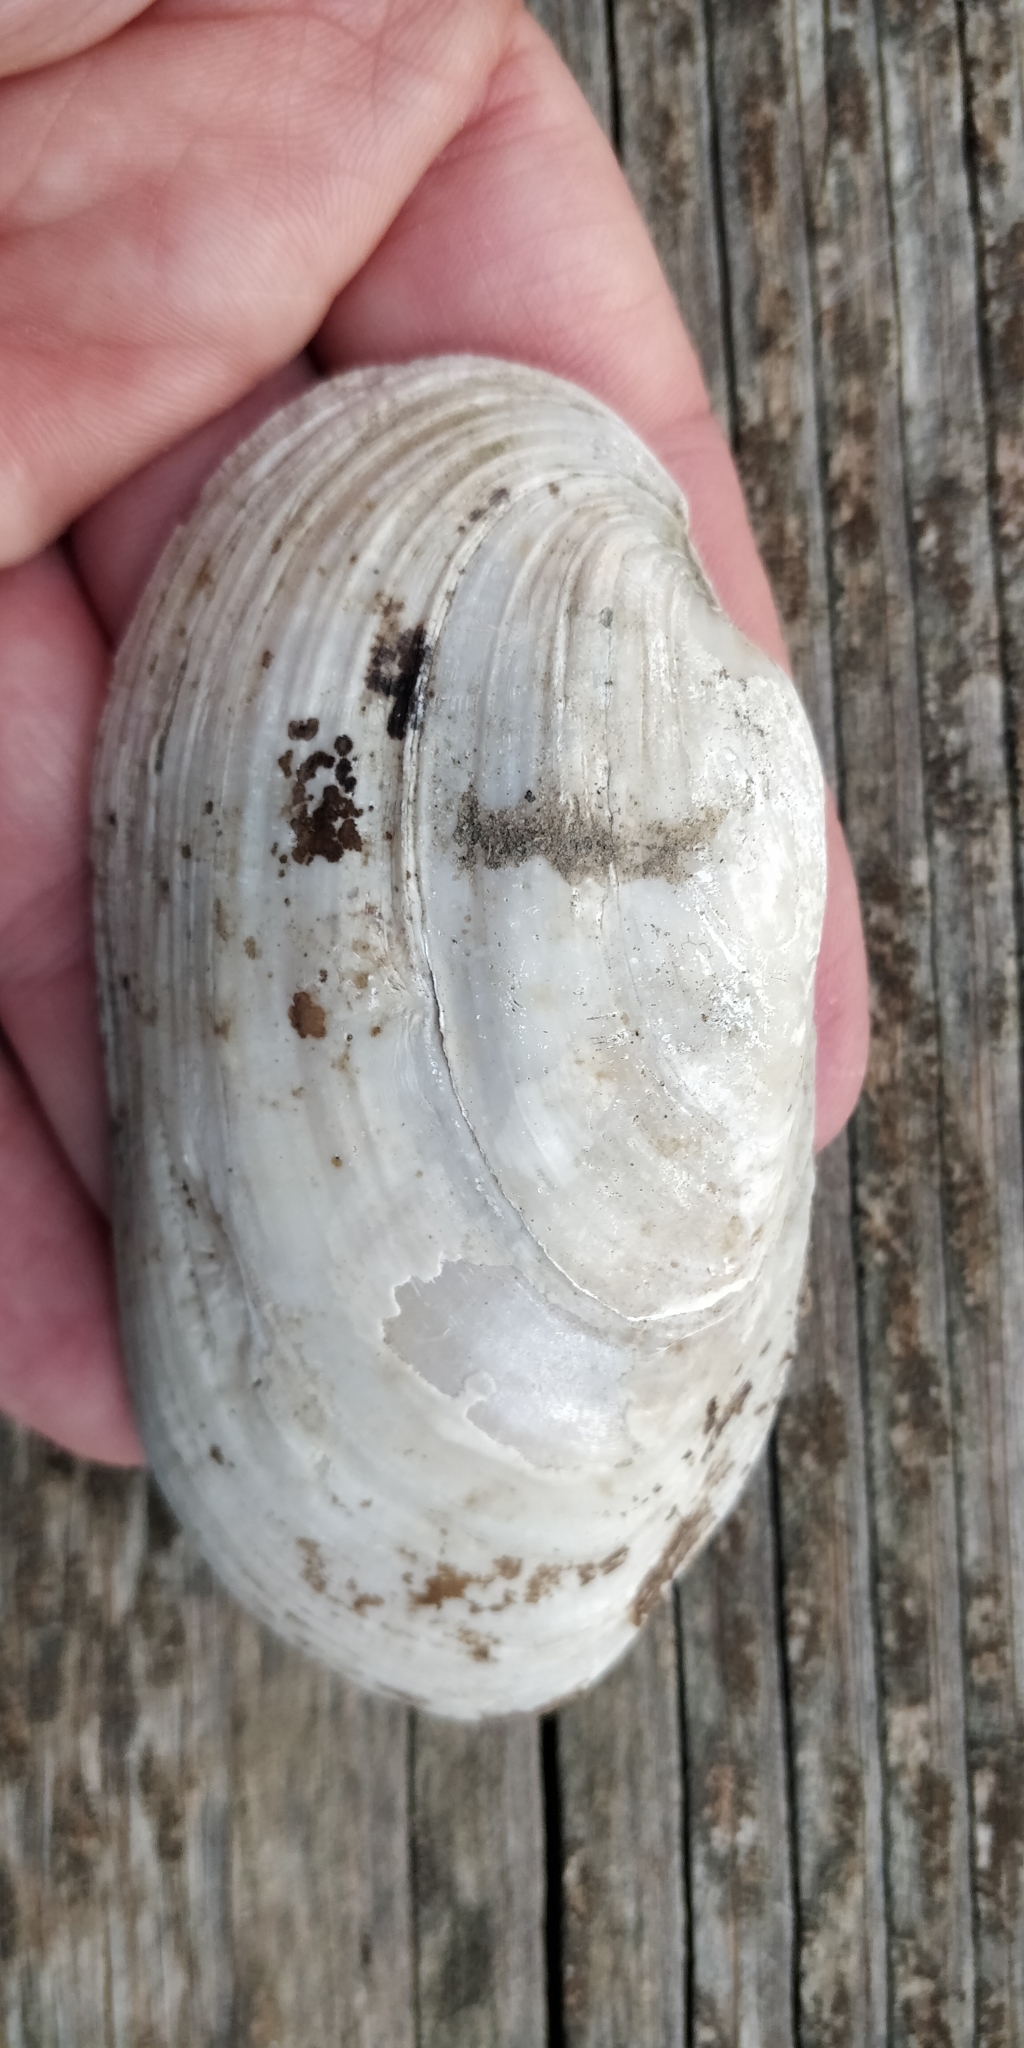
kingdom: Animalia
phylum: Mollusca
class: Bivalvia
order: Unionida
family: Unionidae
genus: Lampsilis
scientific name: Lampsilis siliquoidea
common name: Fatmucket
